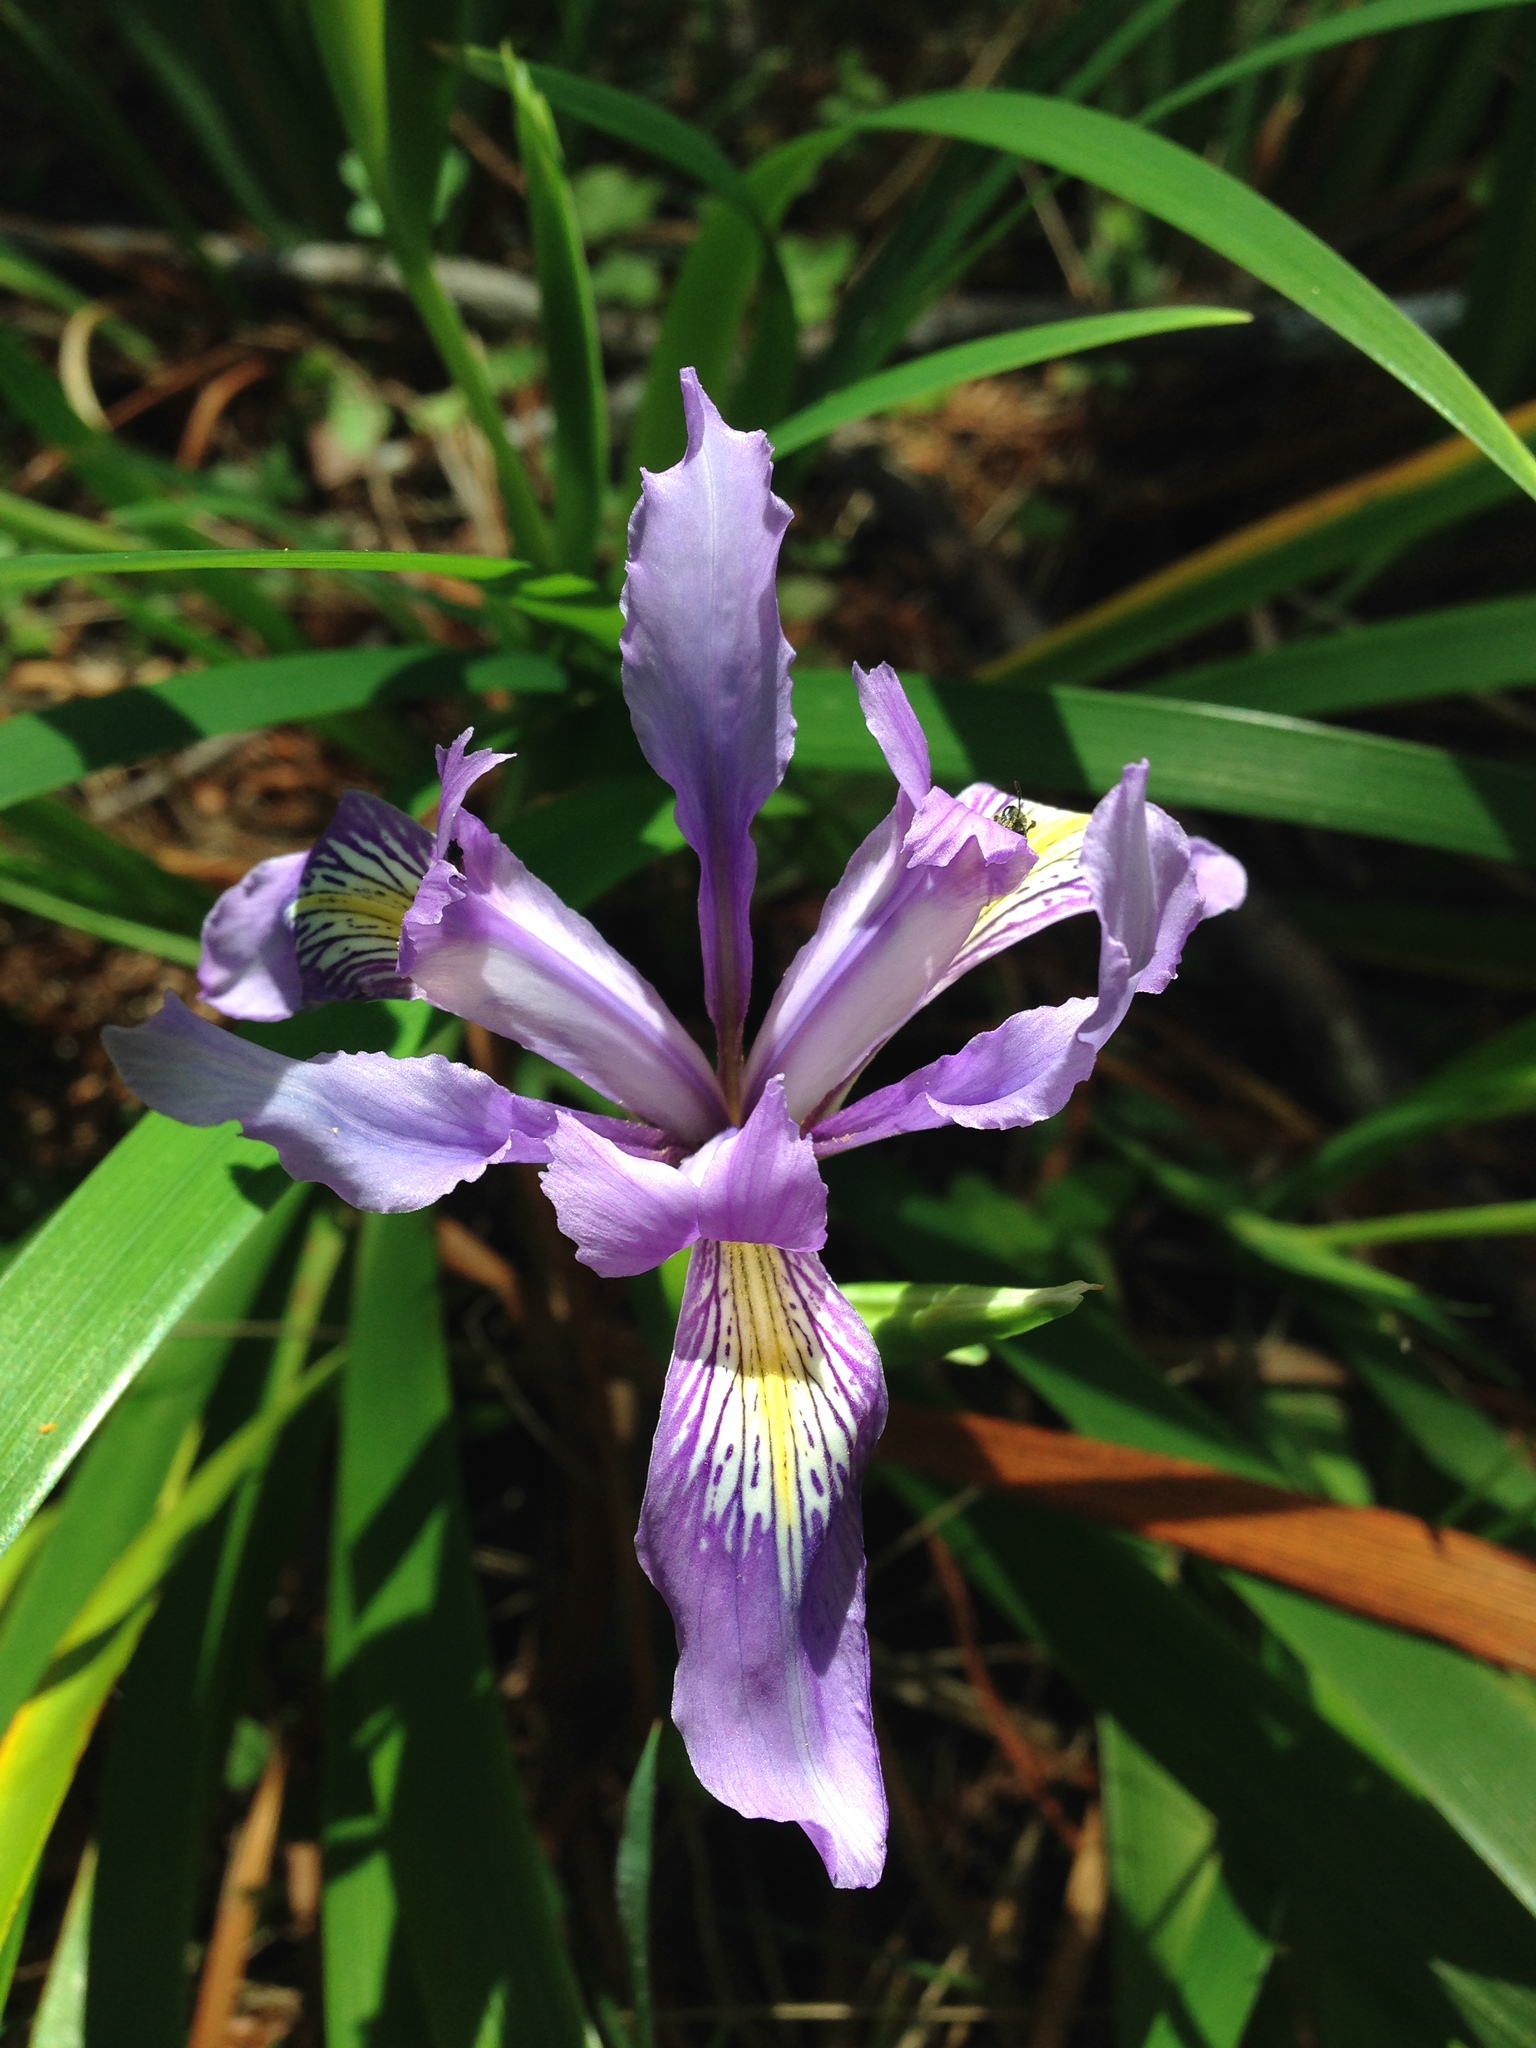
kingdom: Plantae
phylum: Tracheophyta
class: Liliopsida
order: Asparagales
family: Iridaceae
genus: Iris
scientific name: Iris douglasiana
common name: Marin iris
